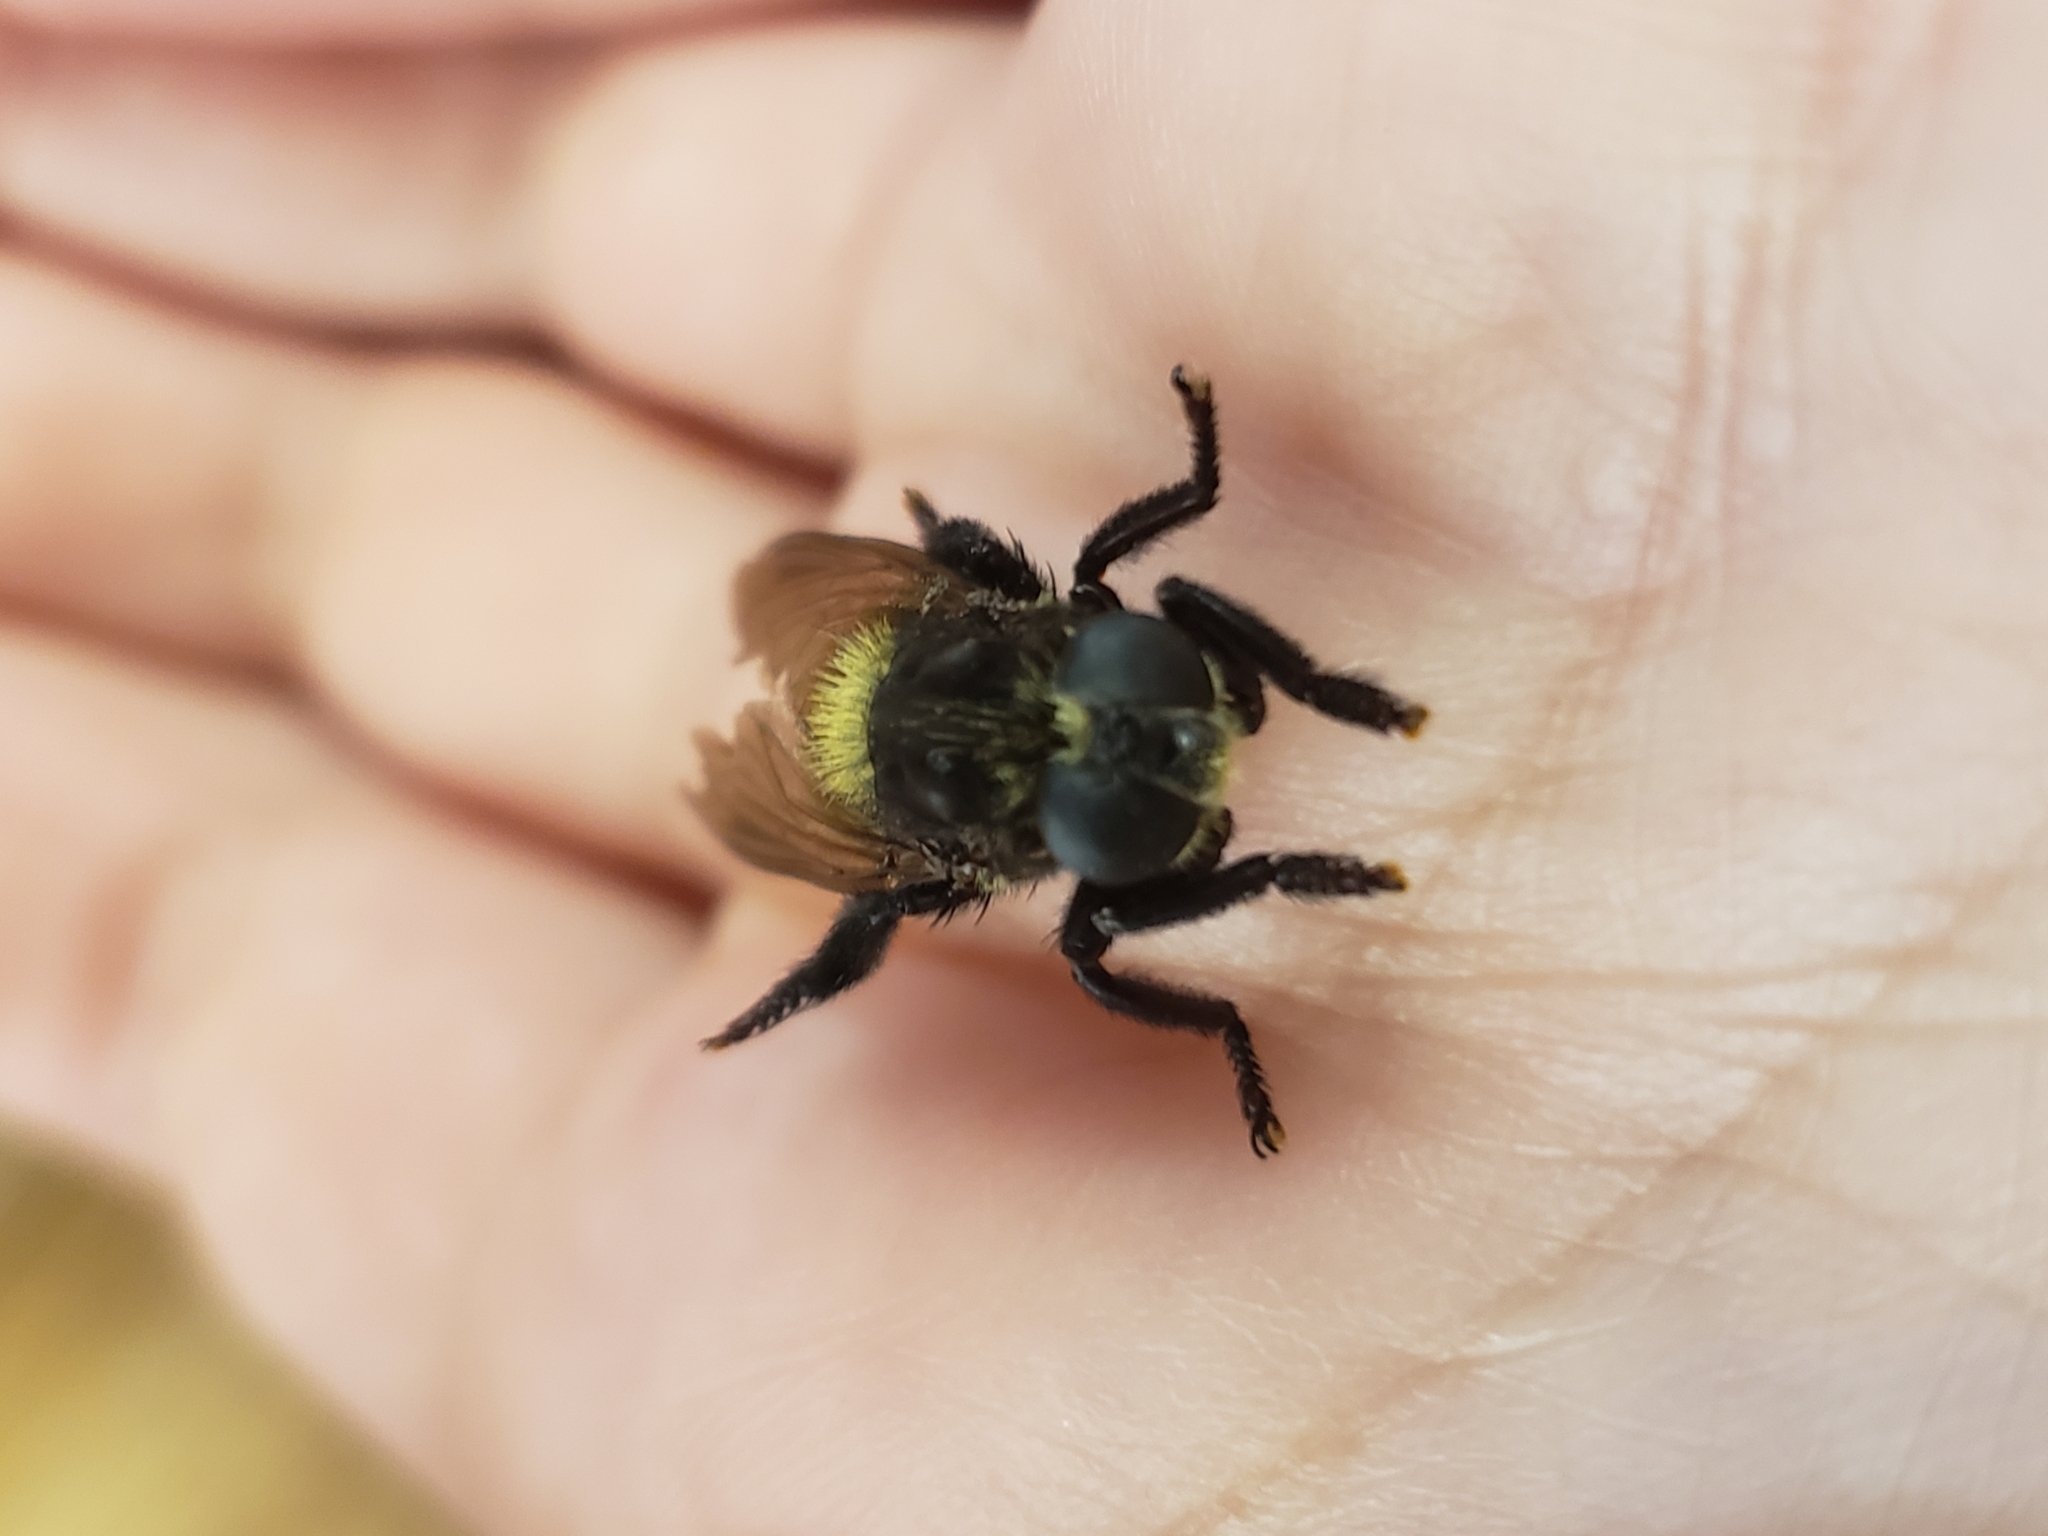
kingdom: Animalia
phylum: Arthropoda
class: Insecta
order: Diptera
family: Asilidae
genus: Mallophora
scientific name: Mallophora
